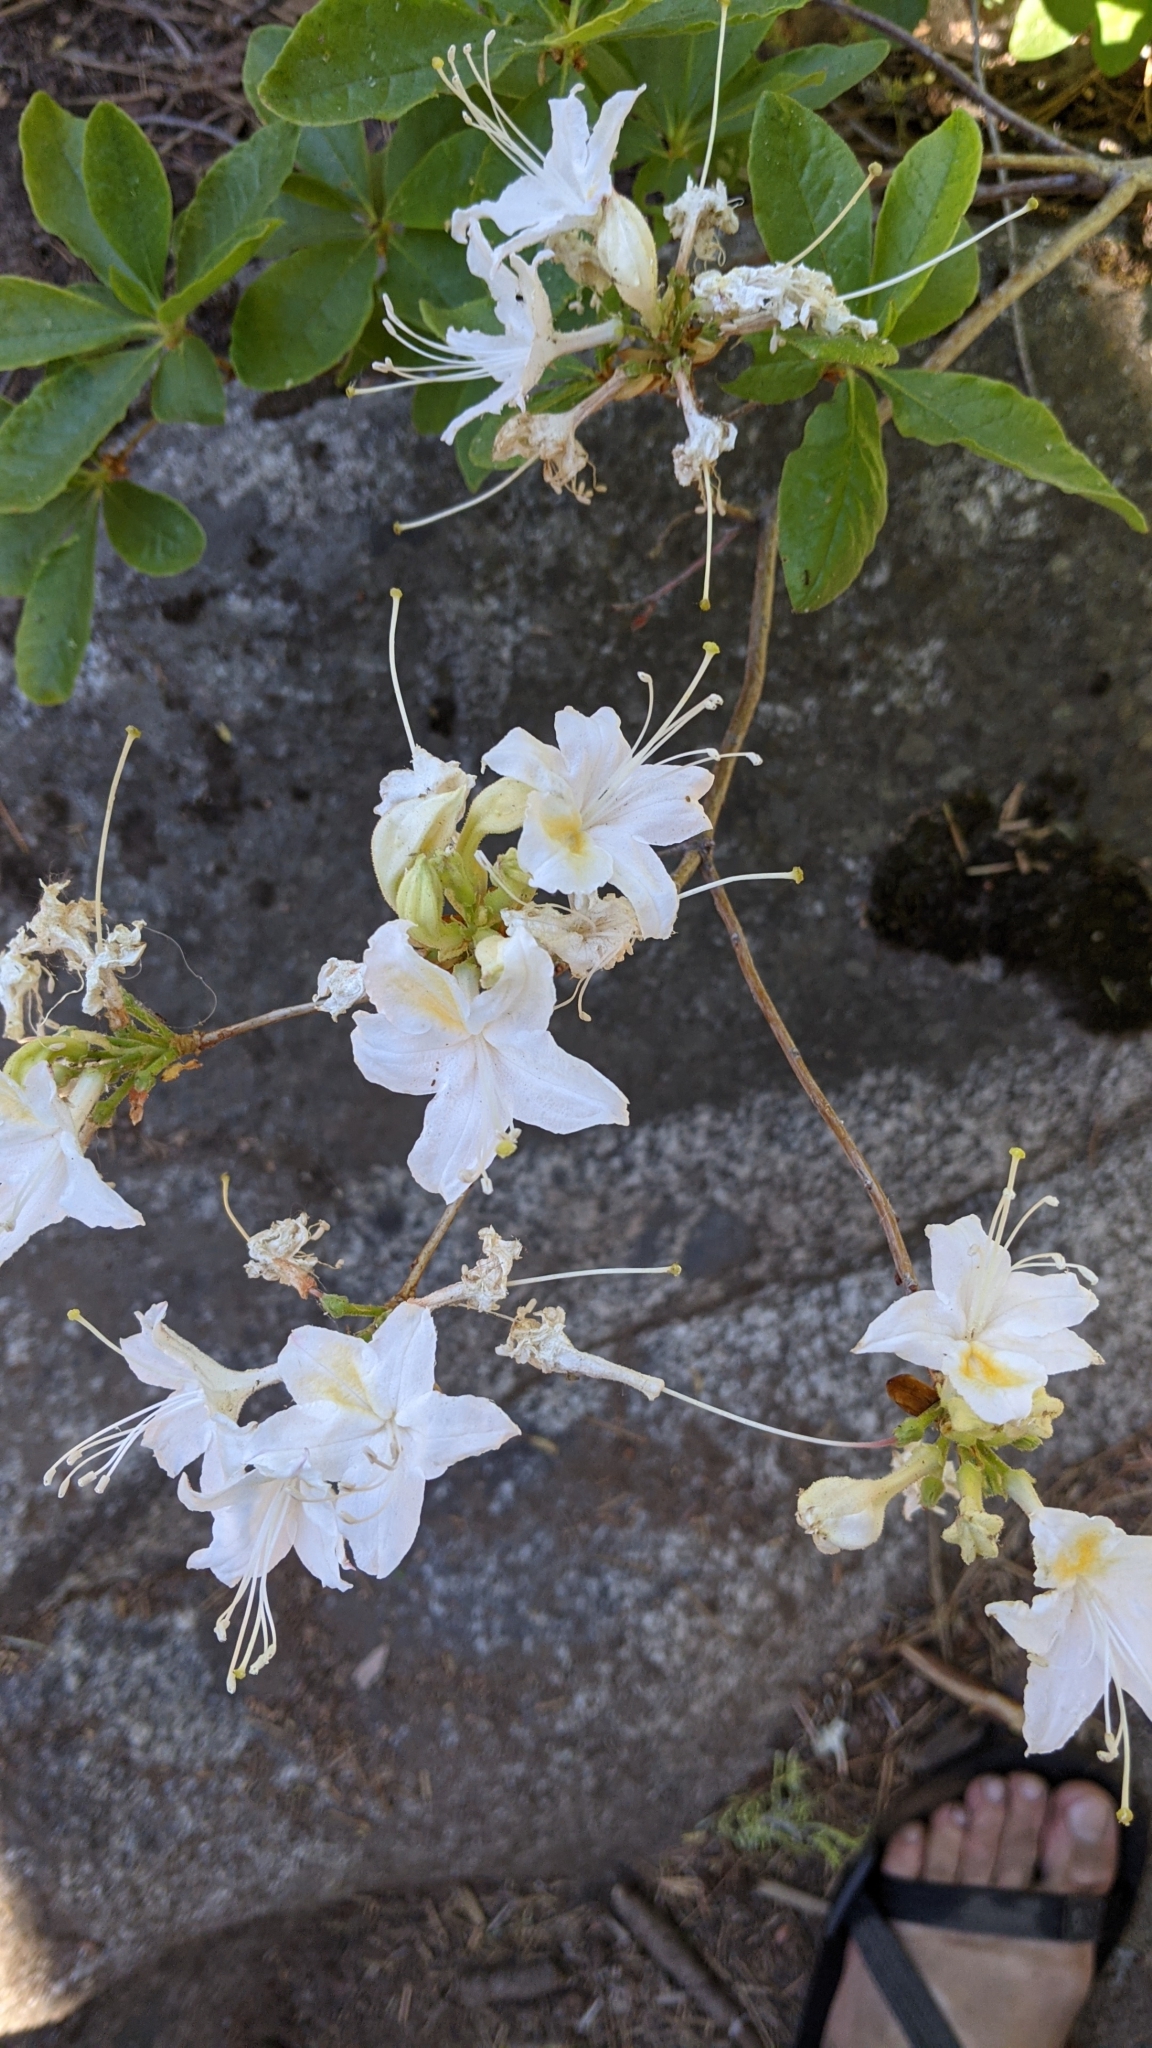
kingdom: Plantae
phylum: Tracheophyta
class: Magnoliopsida
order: Ericales
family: Ericaceae
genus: Rhododendron
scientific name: Rhododendron occidentale
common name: Western azalea
